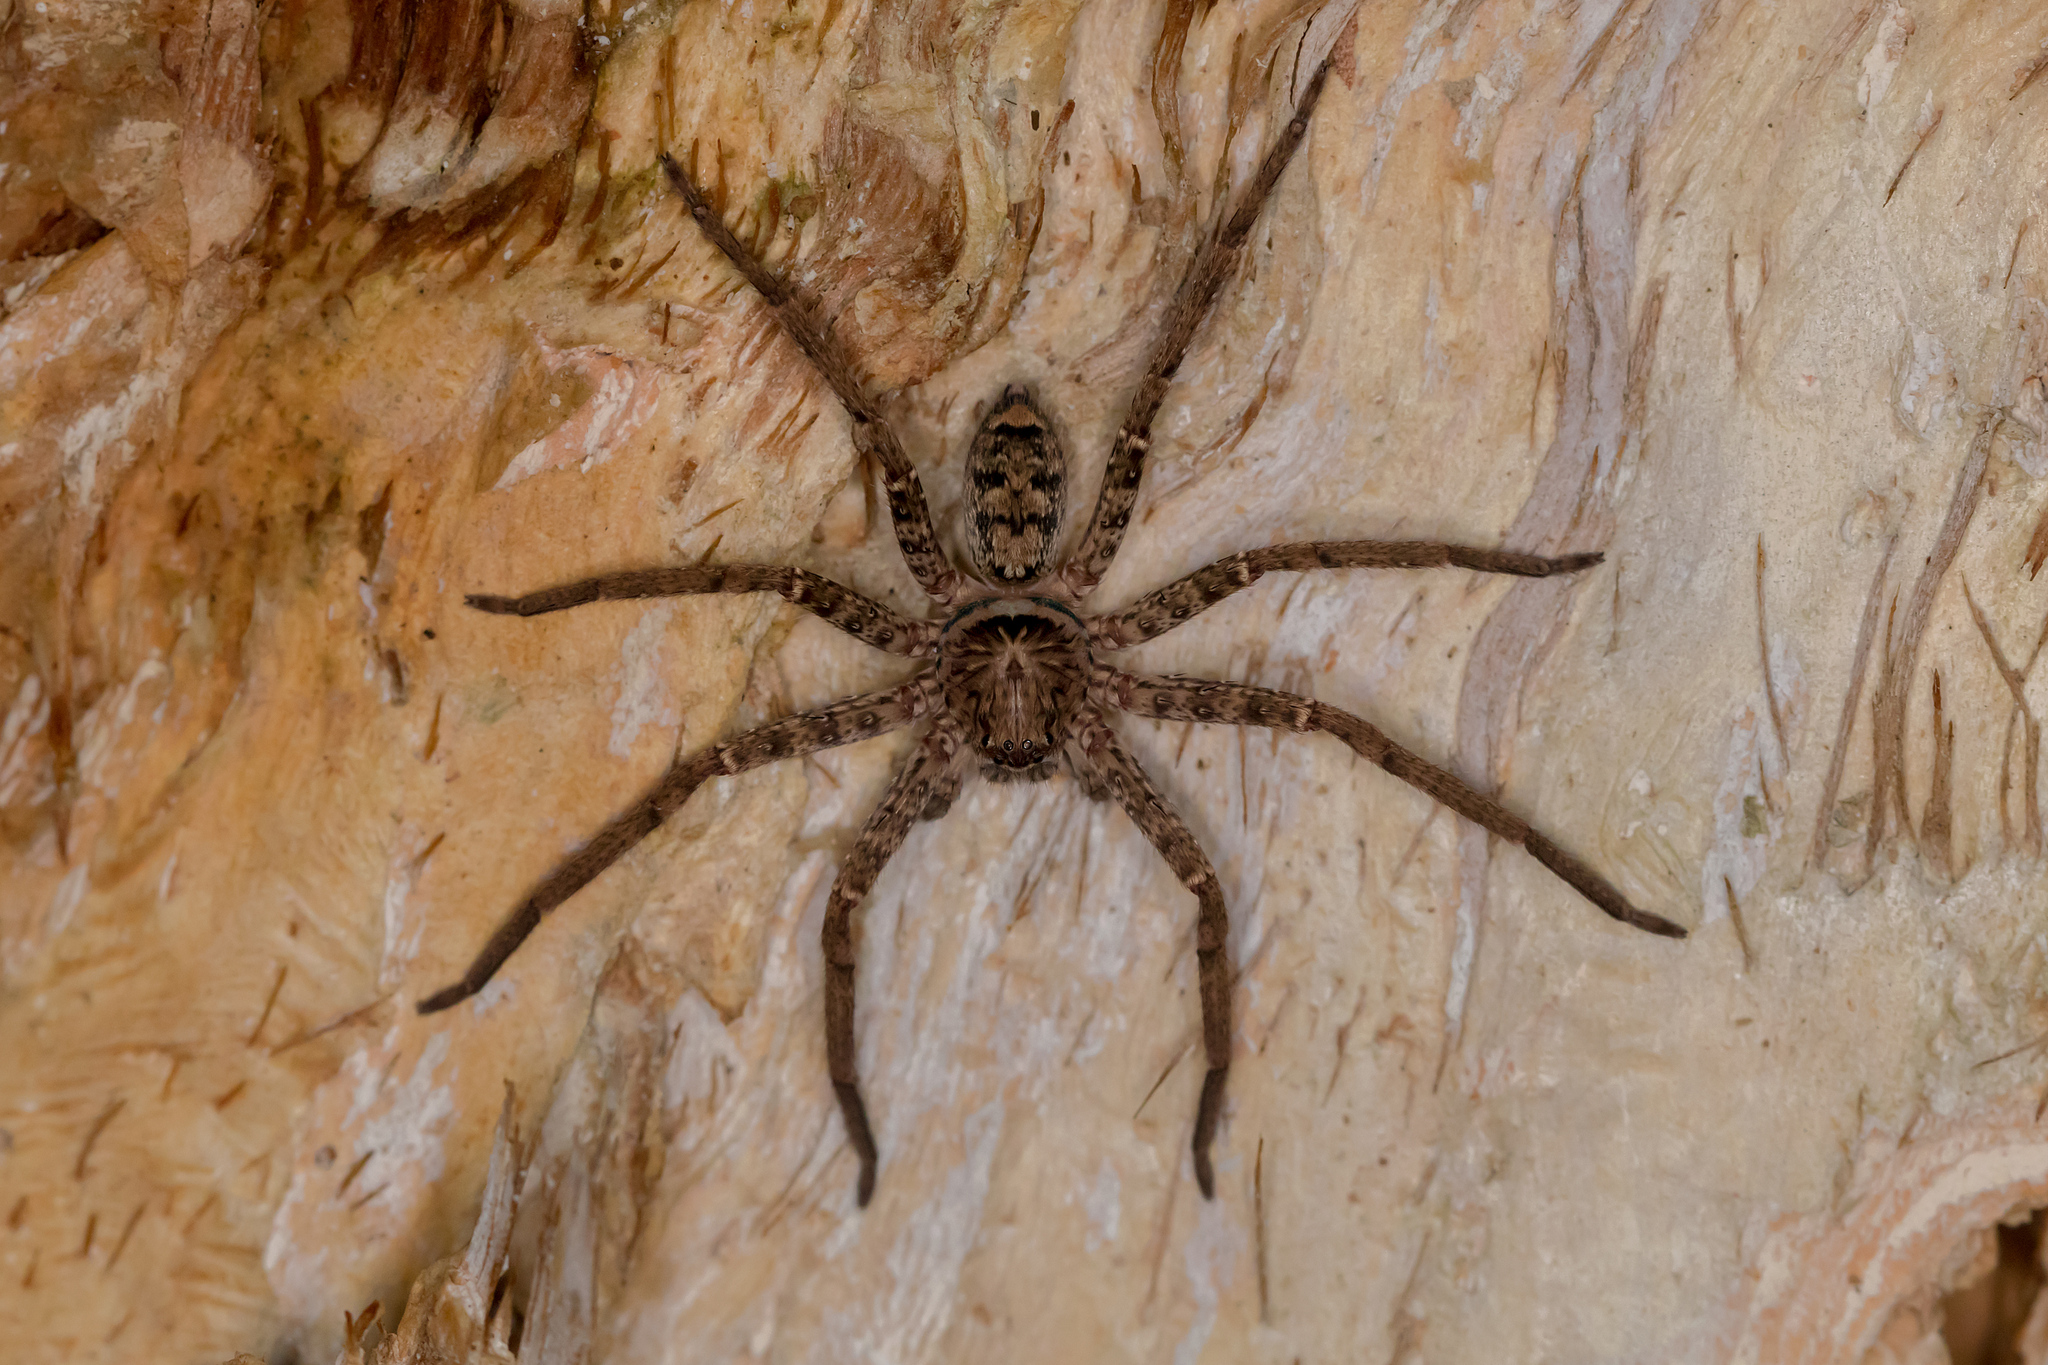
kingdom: Animalia
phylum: Arthropoda
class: Arachnida
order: Araneae
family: Sparassidae
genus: Heteropoda
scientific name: Heteropoda jugulans
